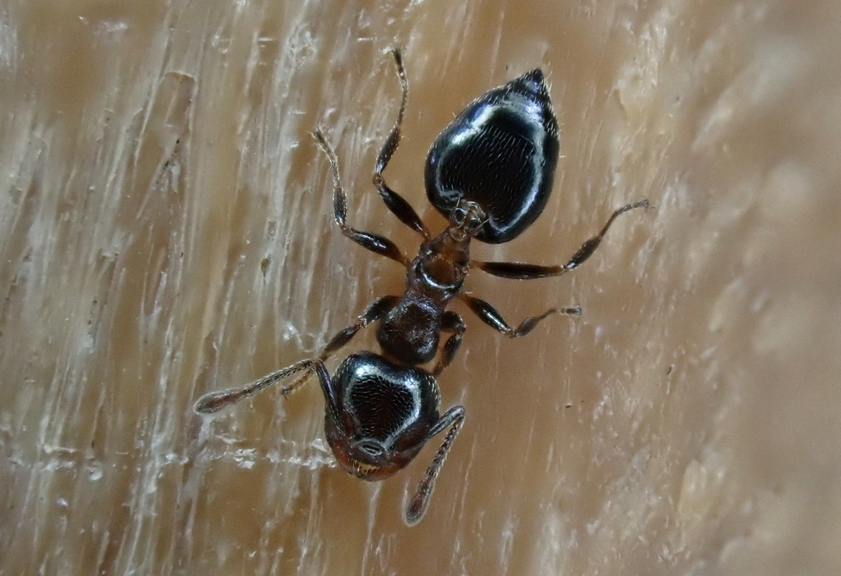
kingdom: Animalia
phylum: Arthropoda
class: Insecta
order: Hymenoptera
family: Formicidae
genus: Crematogaster
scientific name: Crematogaster ashmeadi
